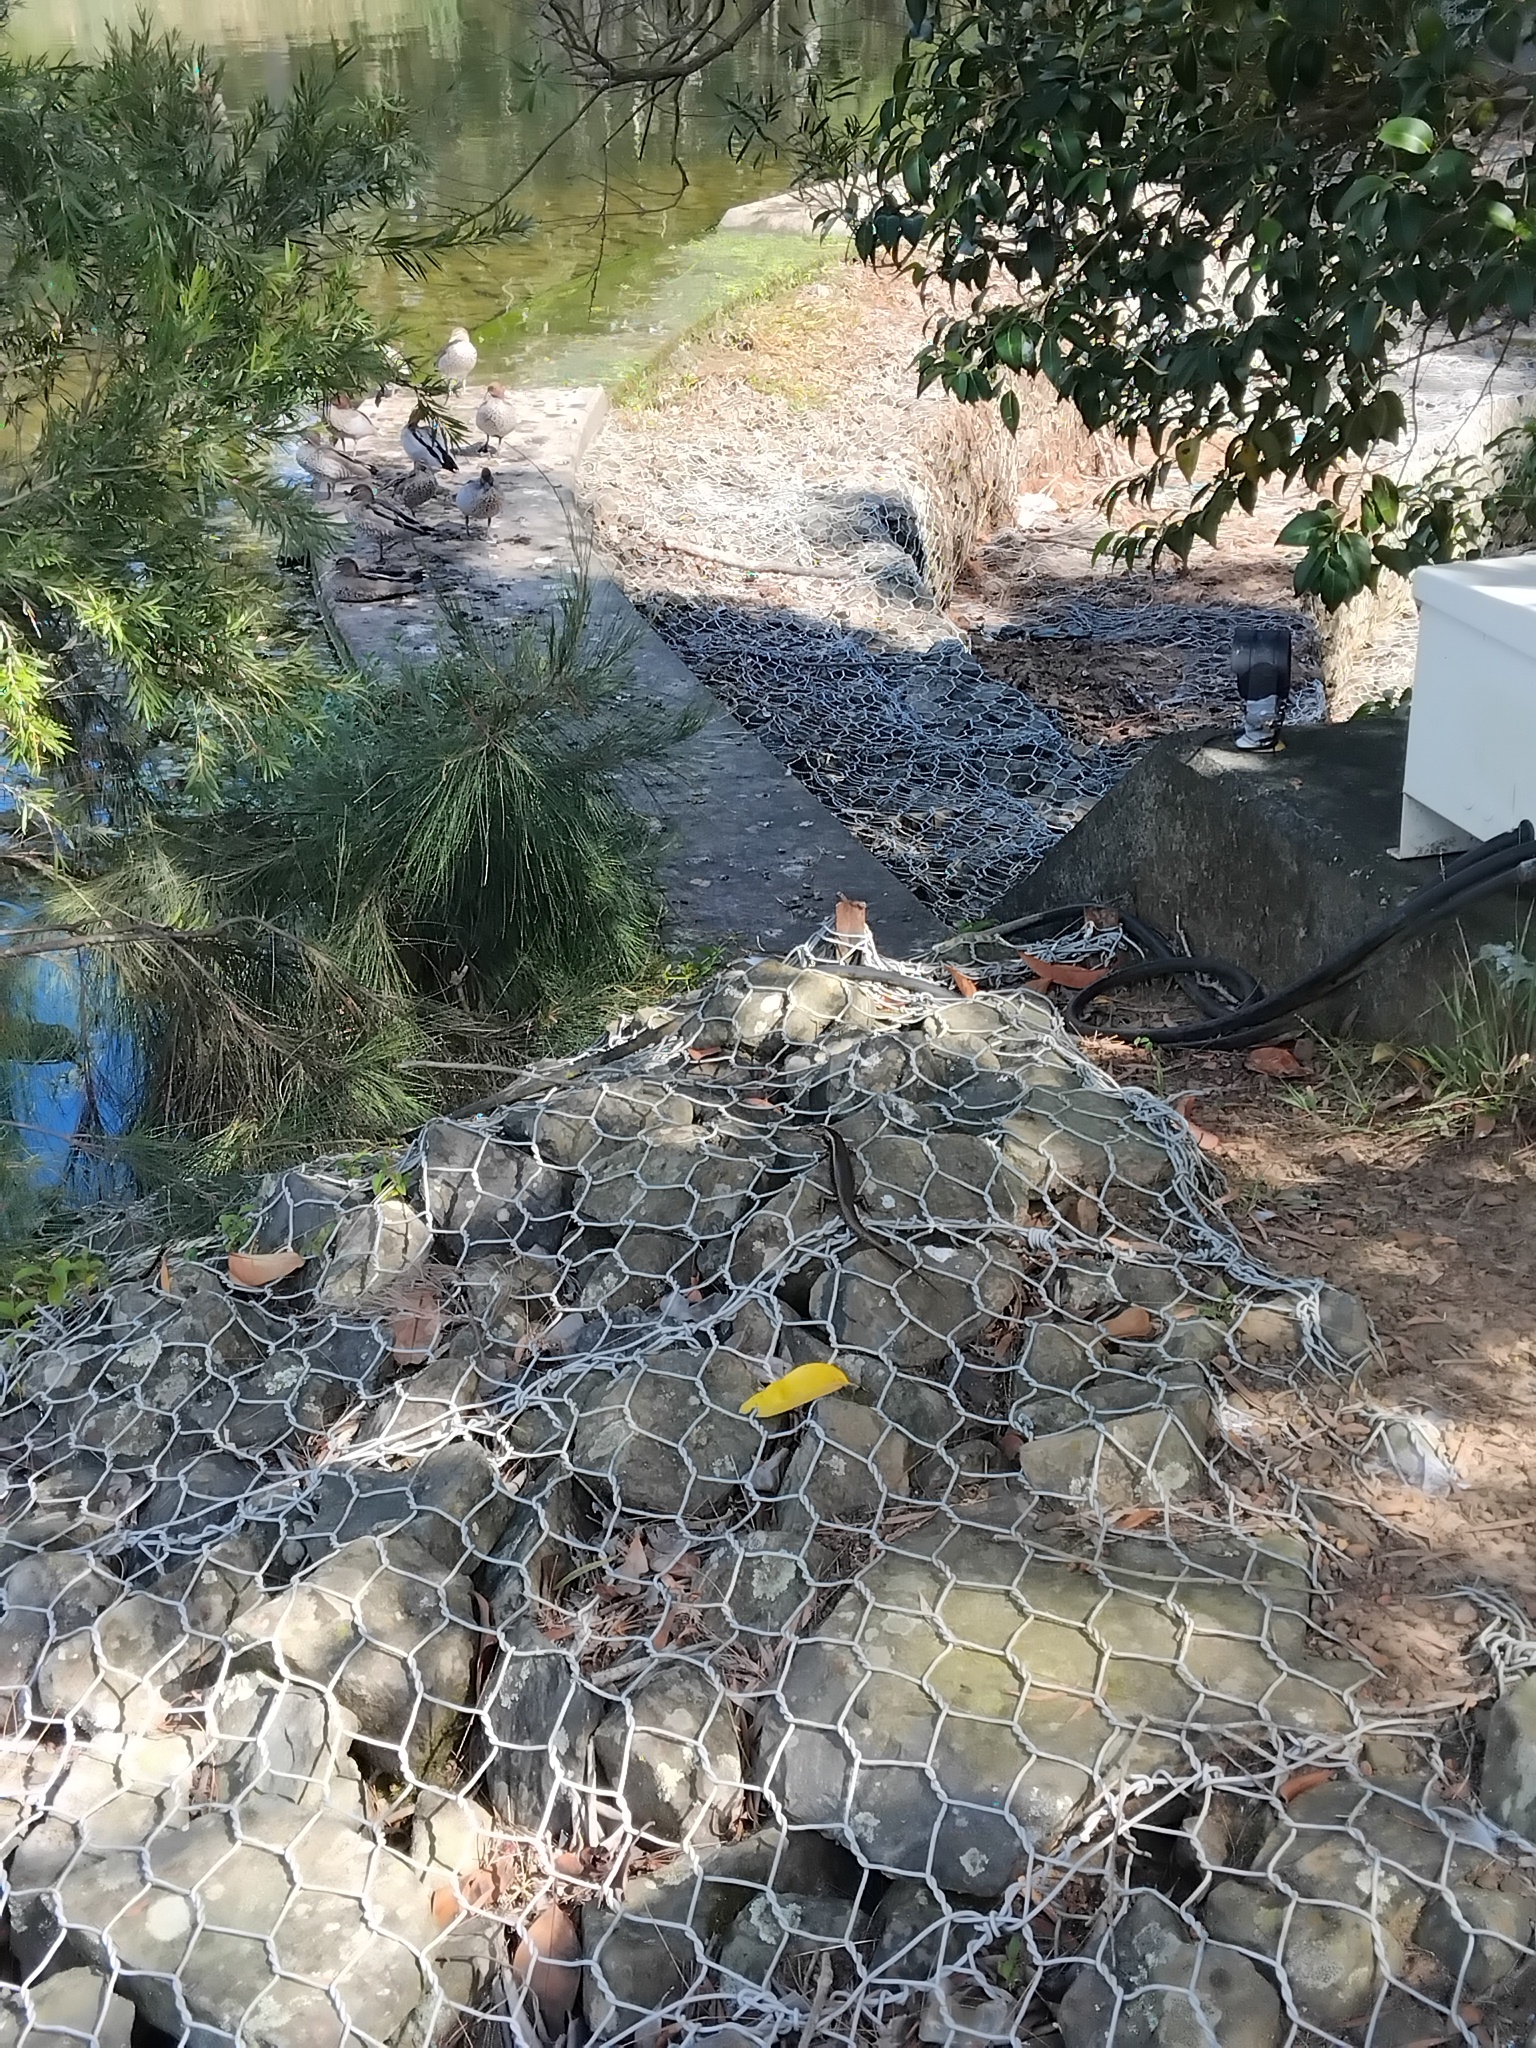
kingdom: Animalia
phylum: Chordata
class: Squamata
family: Scincidae
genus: Eulamprus
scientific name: Eulamprus quoyii
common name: Eastern water skink
